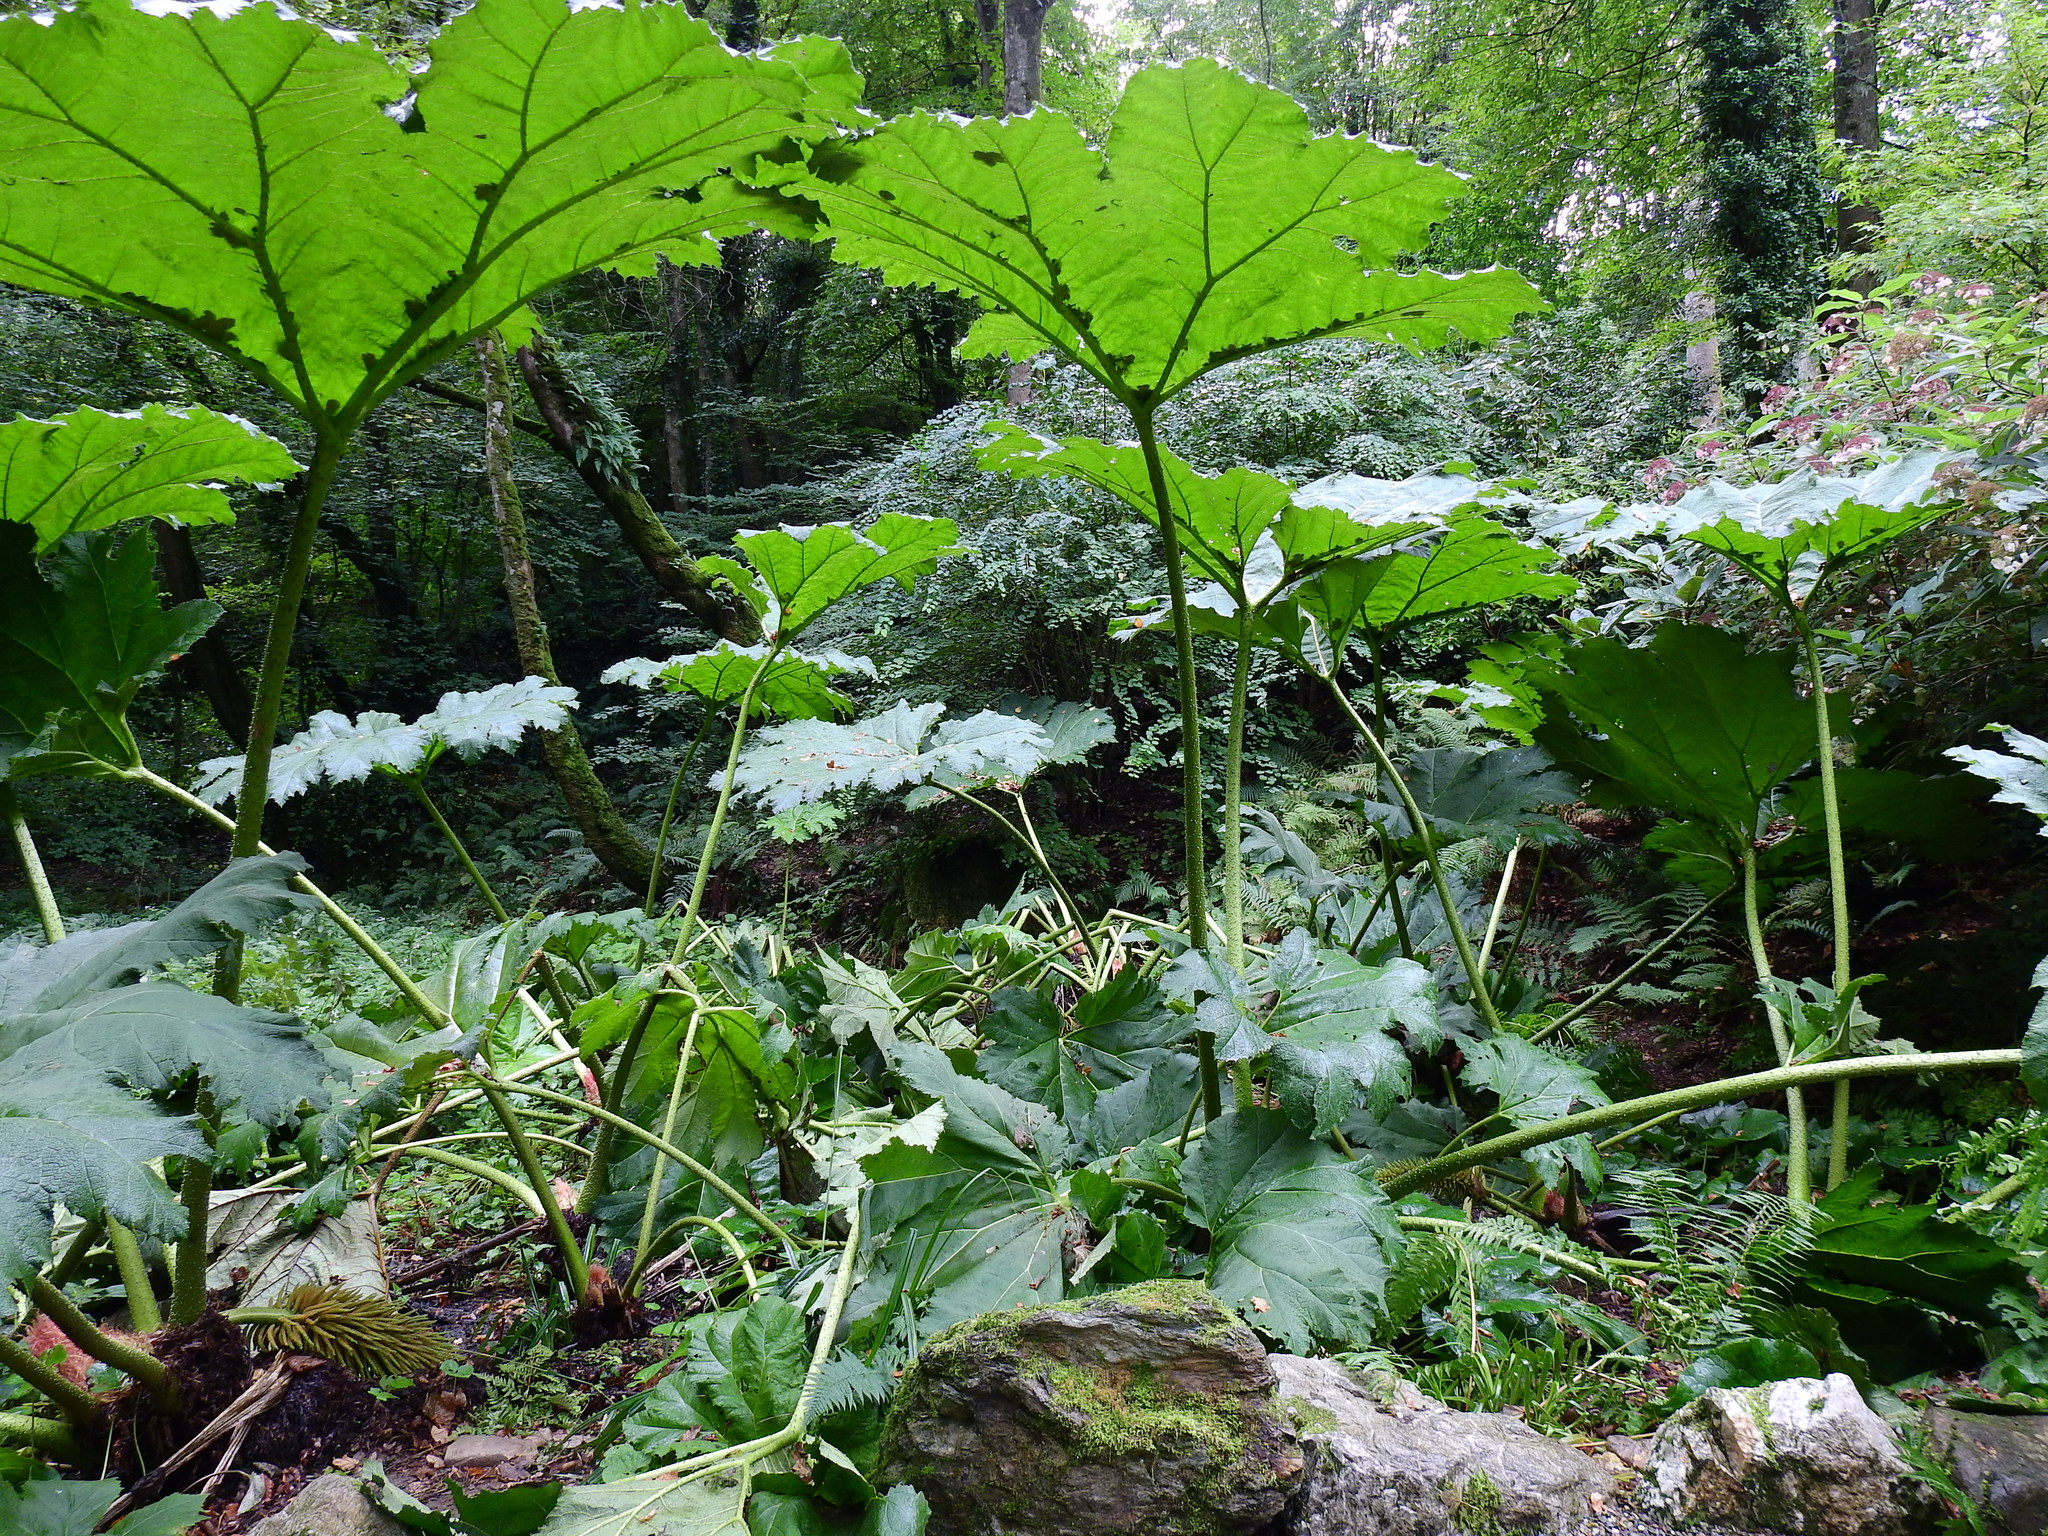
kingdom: Plantae
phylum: Tracheophyta
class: Magnoliopsida
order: Gunnerales
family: Gunneraceae
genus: Gunnera
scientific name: Gunnera tinctoria
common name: Giant-rhubarb
